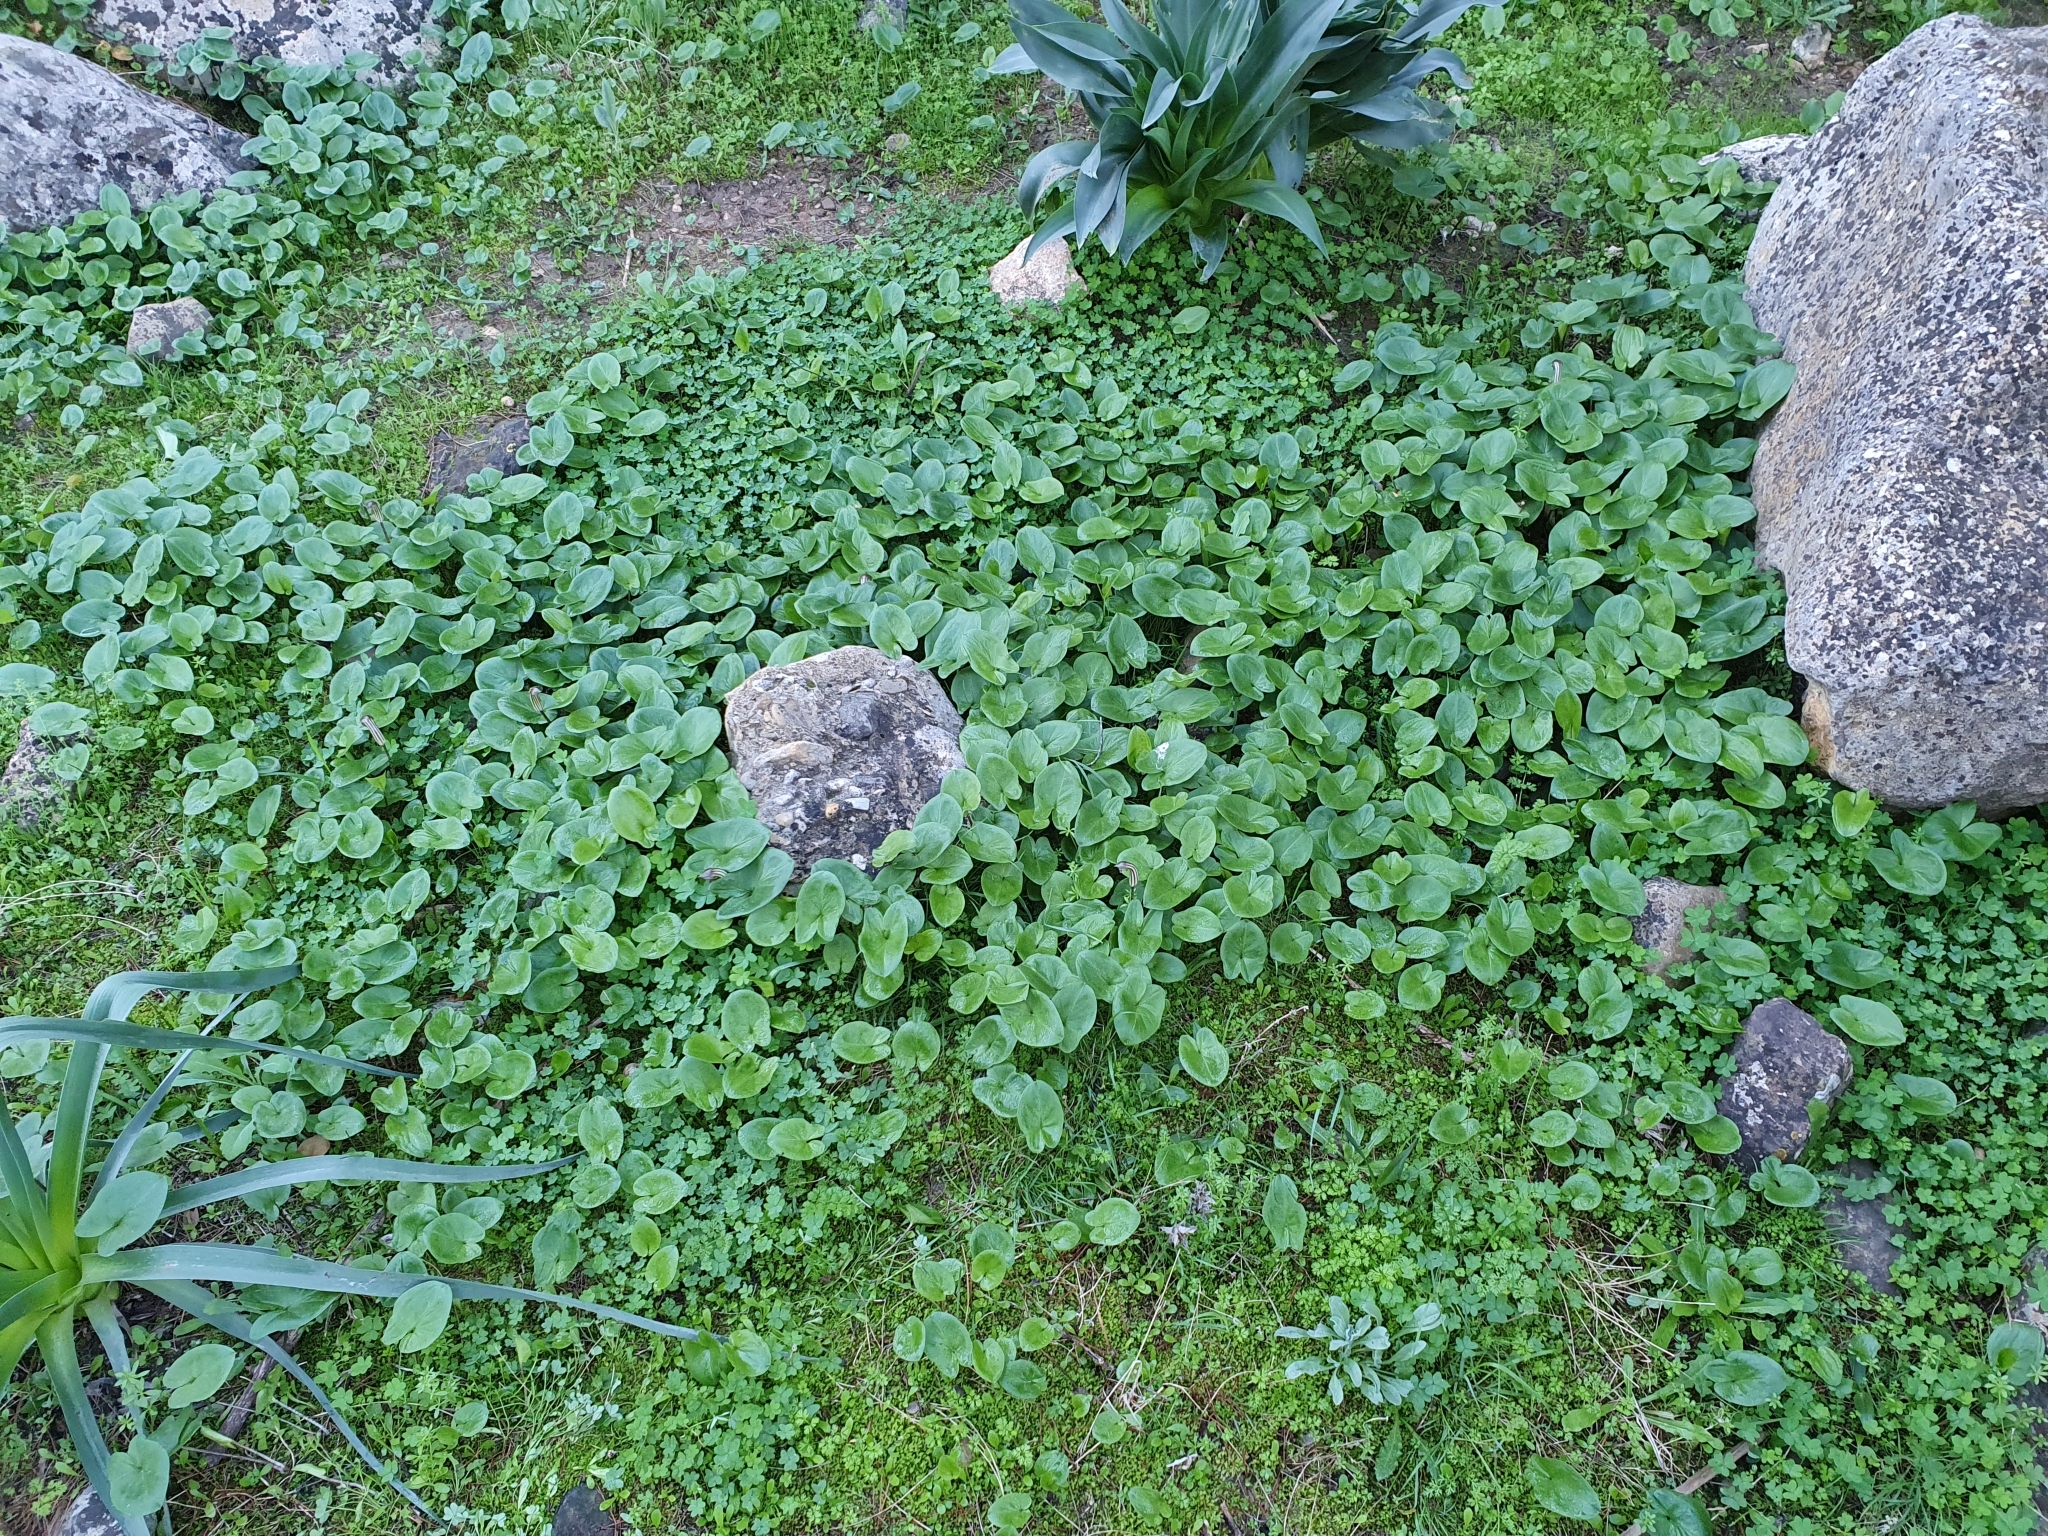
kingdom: Plantae
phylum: Tracheophyta
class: Liliopsida
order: Alismatales
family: Araceae
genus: Arisarum
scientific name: Arisarum vulgare
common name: Common arisarum
